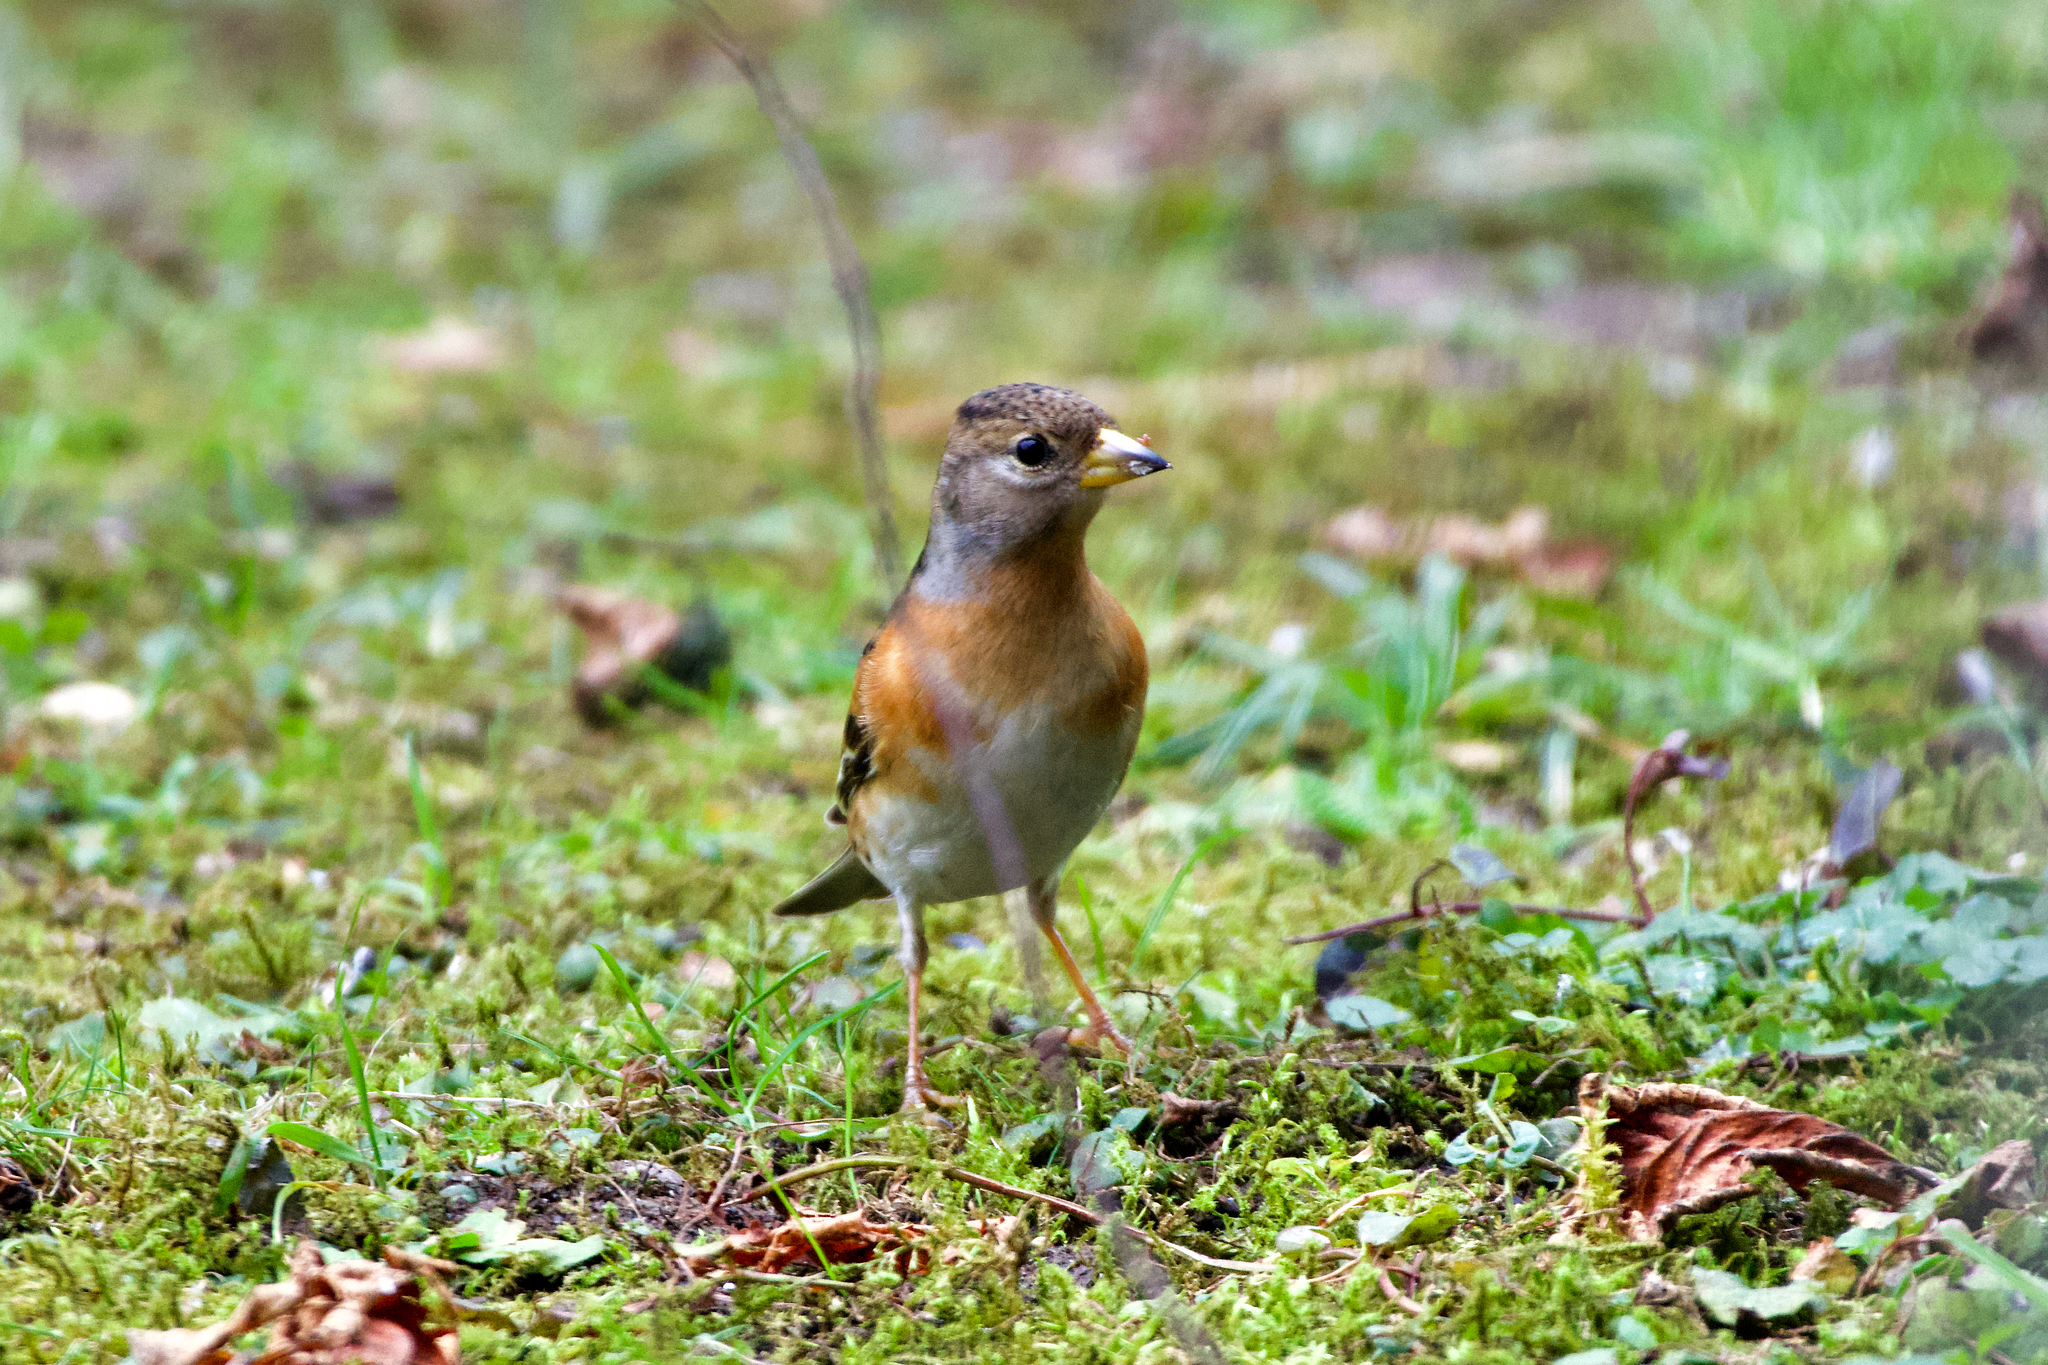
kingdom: Animalia
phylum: Chordata
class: Aves
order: Passeriformes
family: Fringillidae
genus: Fringilla
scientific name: Fringilla montifringilla
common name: Brambling
